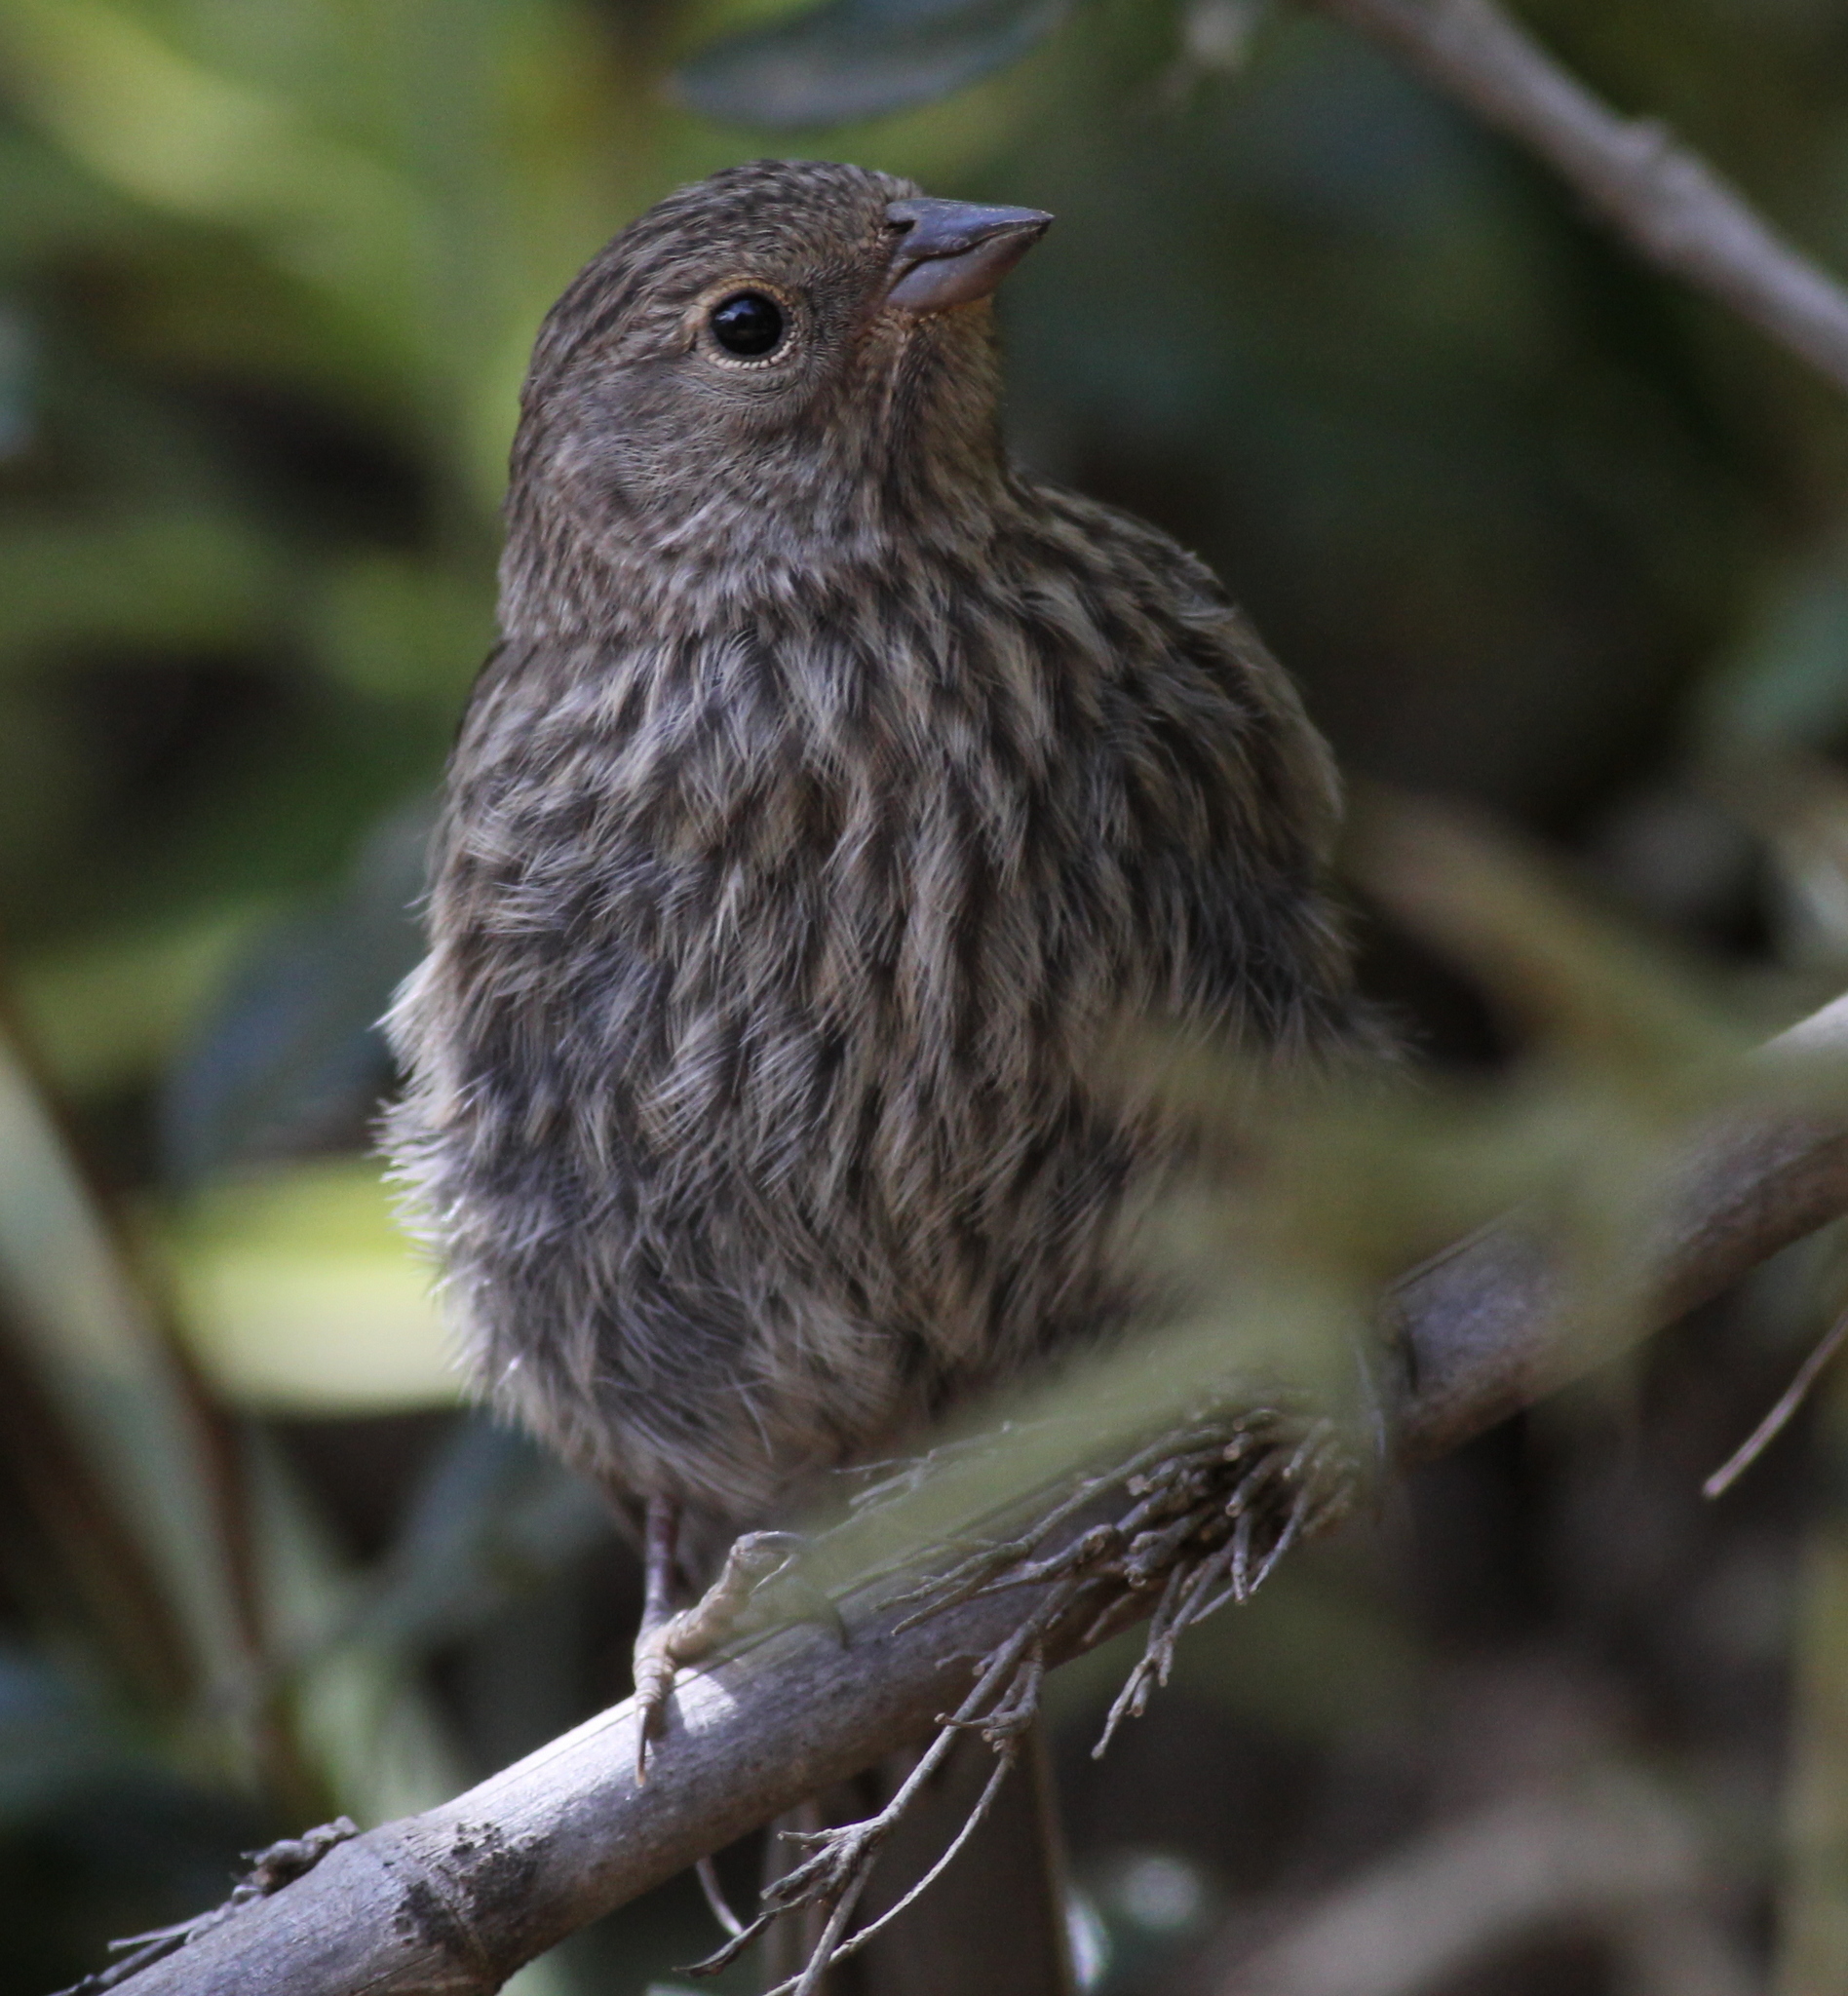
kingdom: Animalia
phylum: Chordata
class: Aves
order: Passeriformes
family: Thraupidae
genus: Geospizopsis
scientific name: Geospizopsis unicolor
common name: Plumbeous sierra-finch
